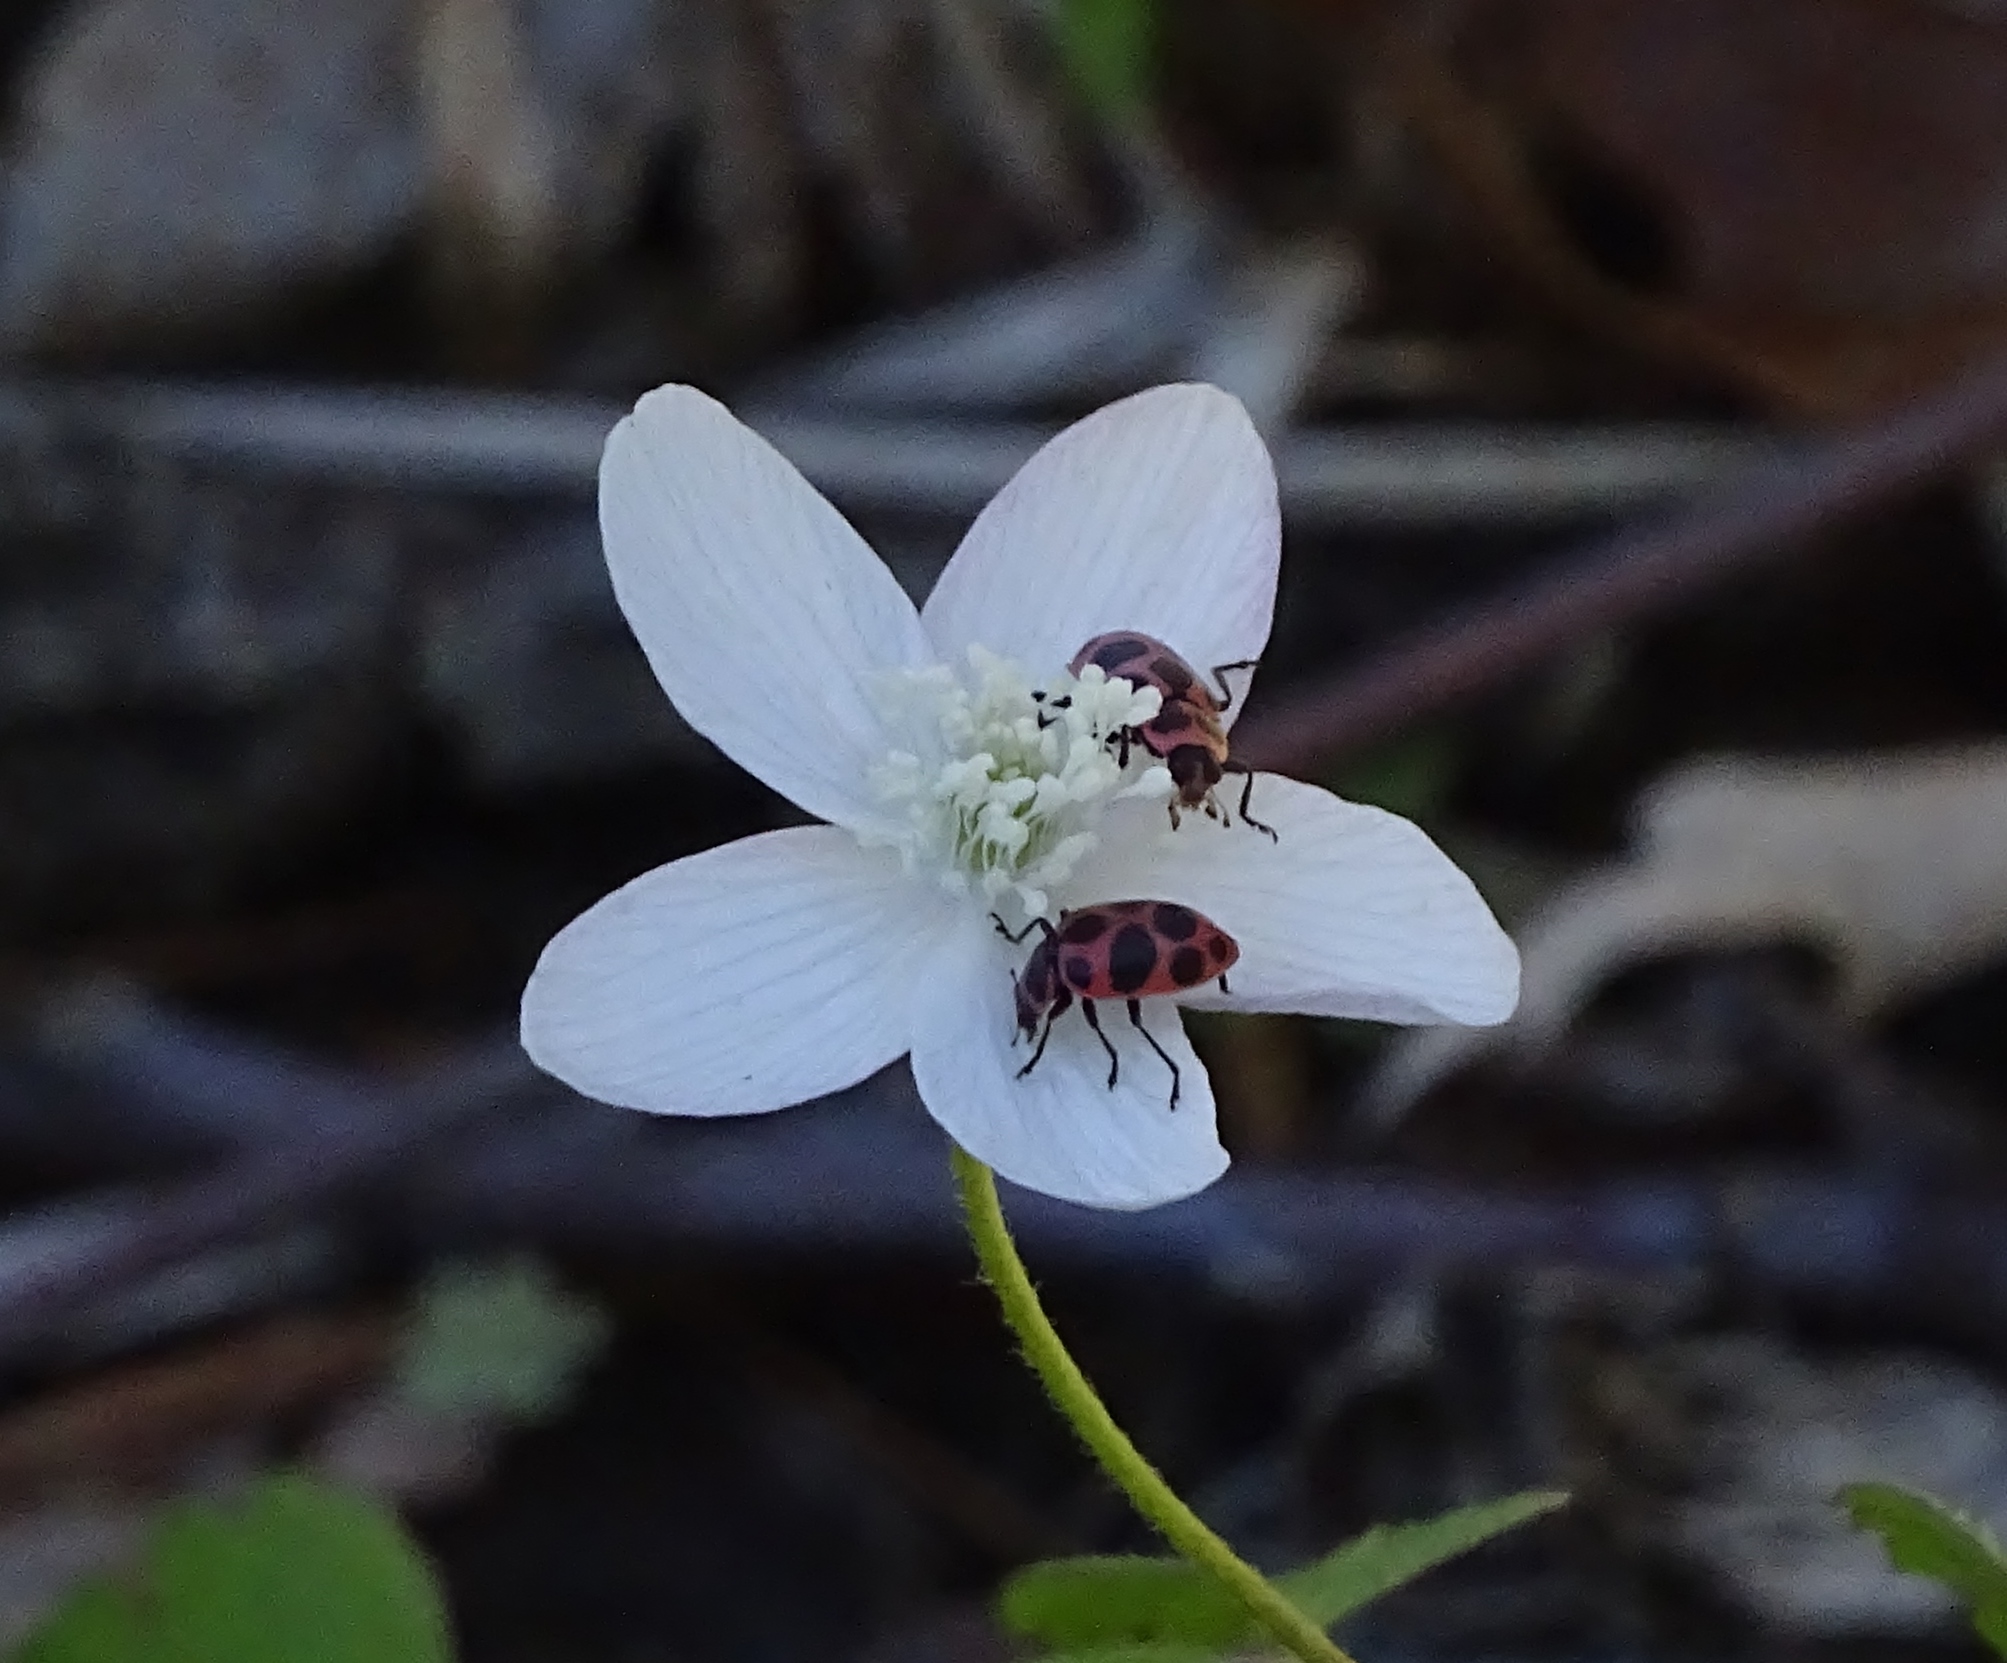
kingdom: Animalia
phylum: Arthropoda
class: Insecta
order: Coleoptera
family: Coccinellidae
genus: Coleomegilla
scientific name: Coleomegilla maculata
